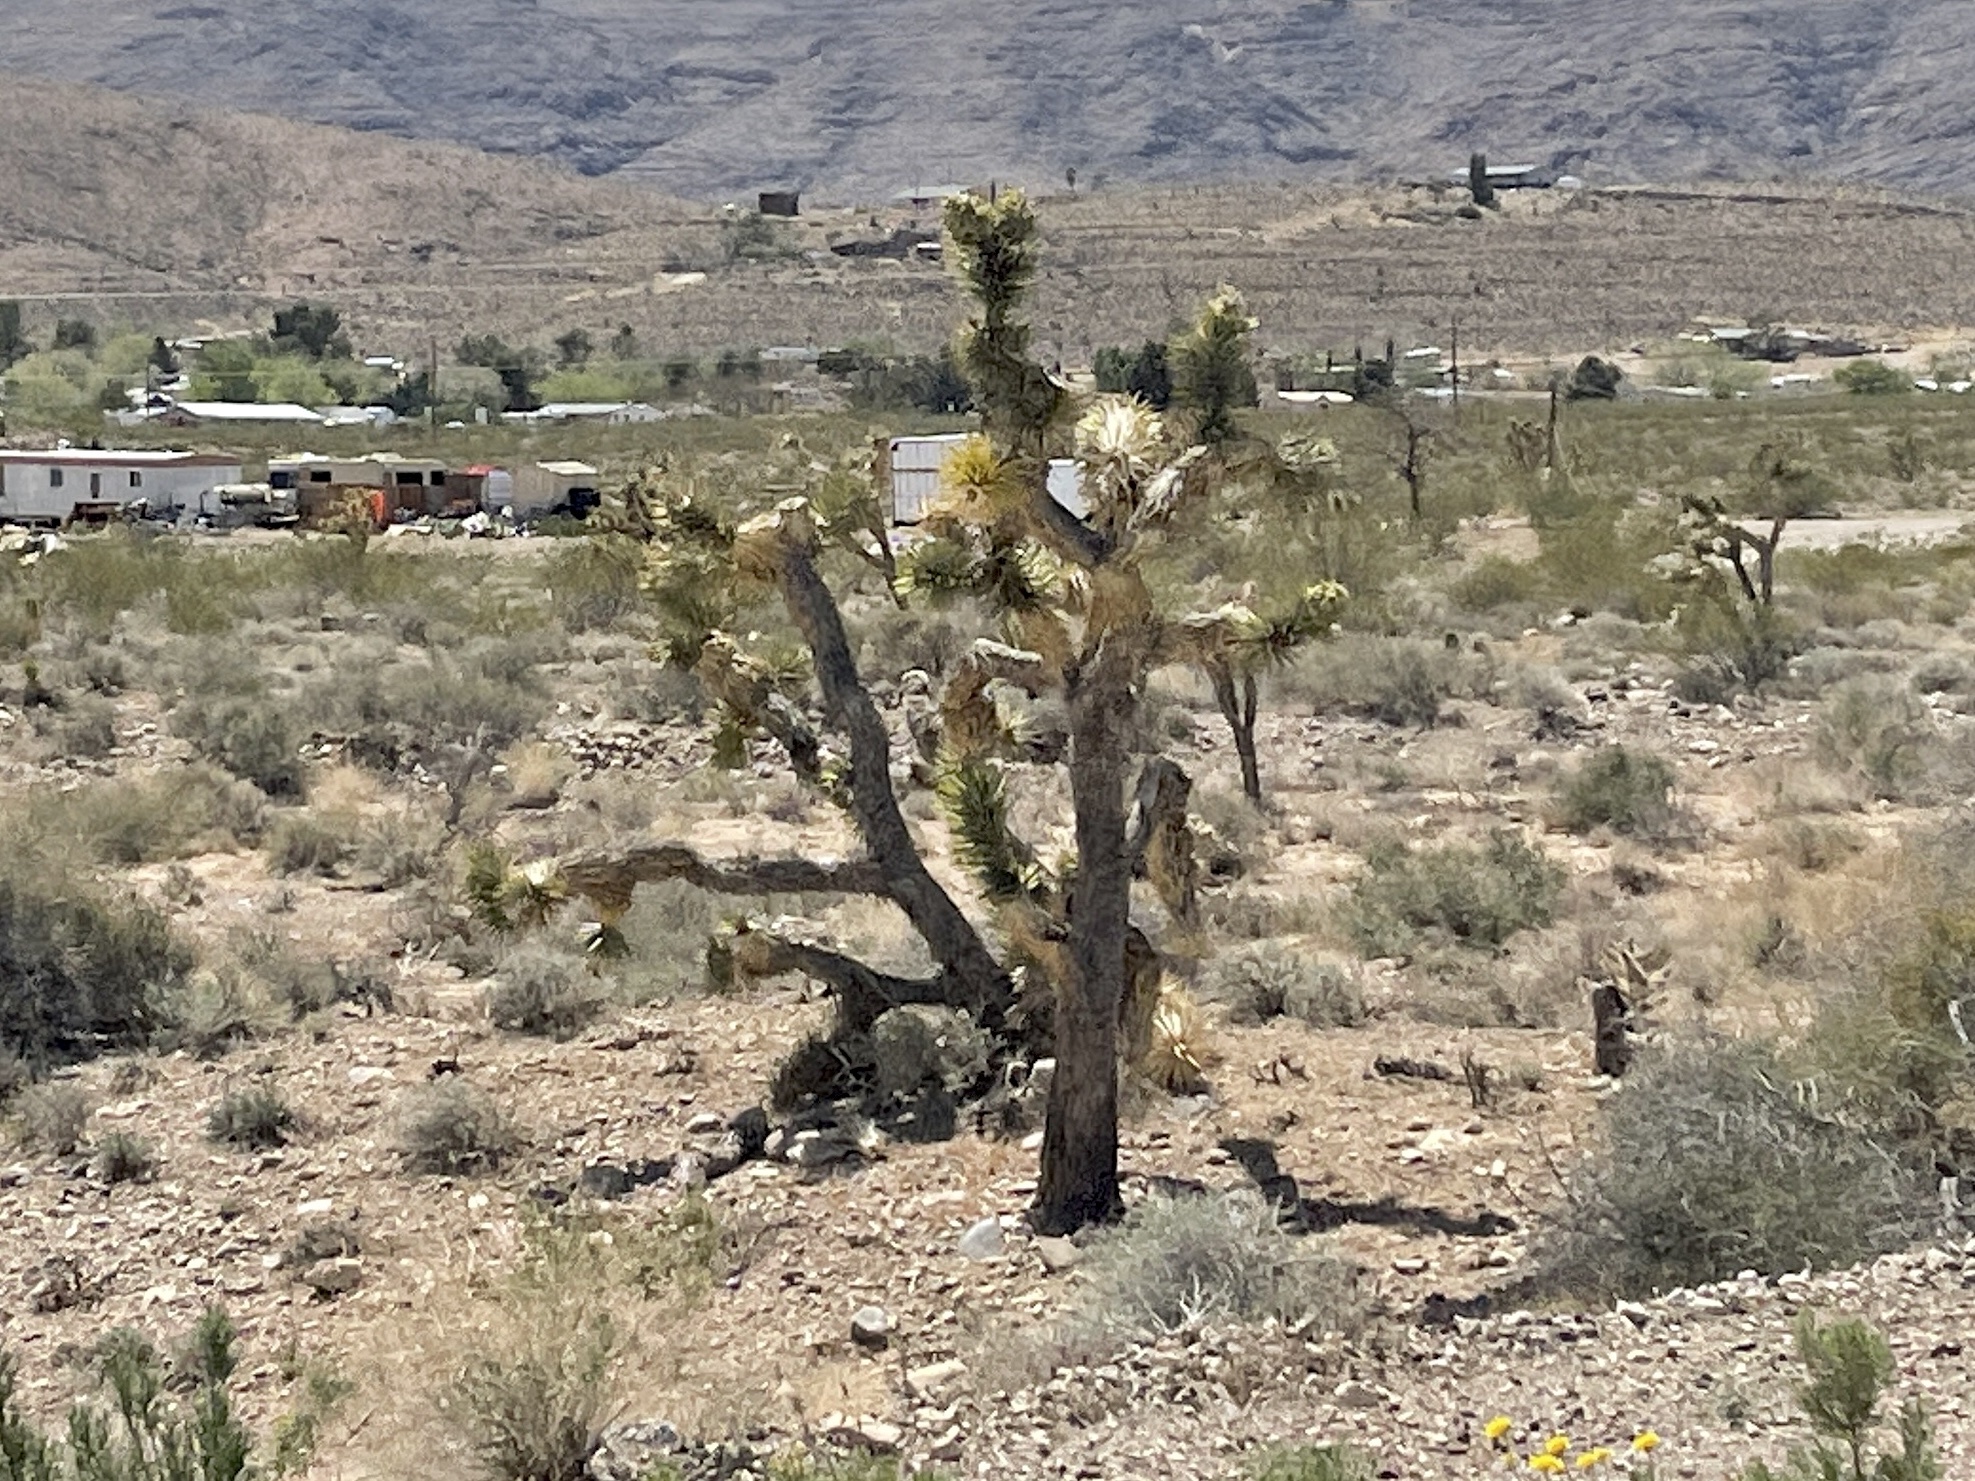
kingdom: Plantae
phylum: Tracheophyta
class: Liliopsida
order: Asparagales
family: Asparagaceae
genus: Yucca
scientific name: Yucca brevifolia
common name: Joshua tree
